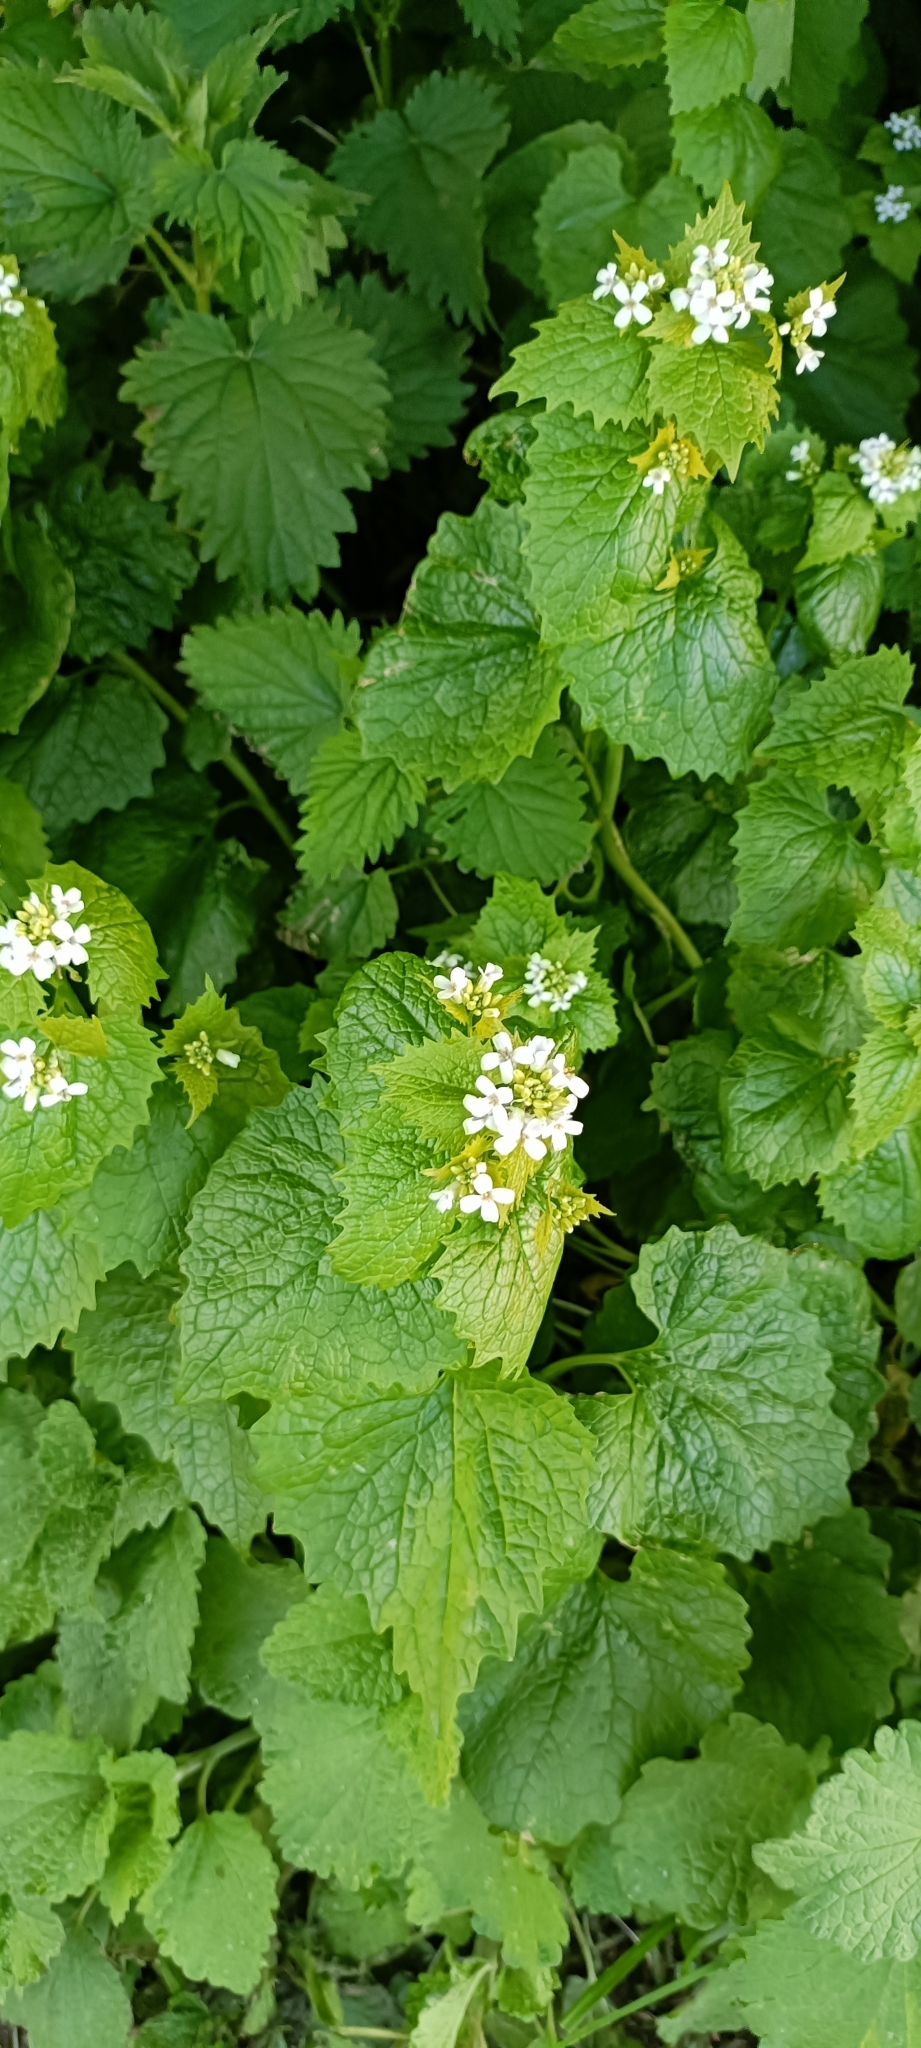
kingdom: Plantae
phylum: Tracheophyta
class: Magnoliopsida
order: Brassicales
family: Brassicaceae
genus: Alliaria
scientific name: Alliaria petiolata
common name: Garlic mustard
